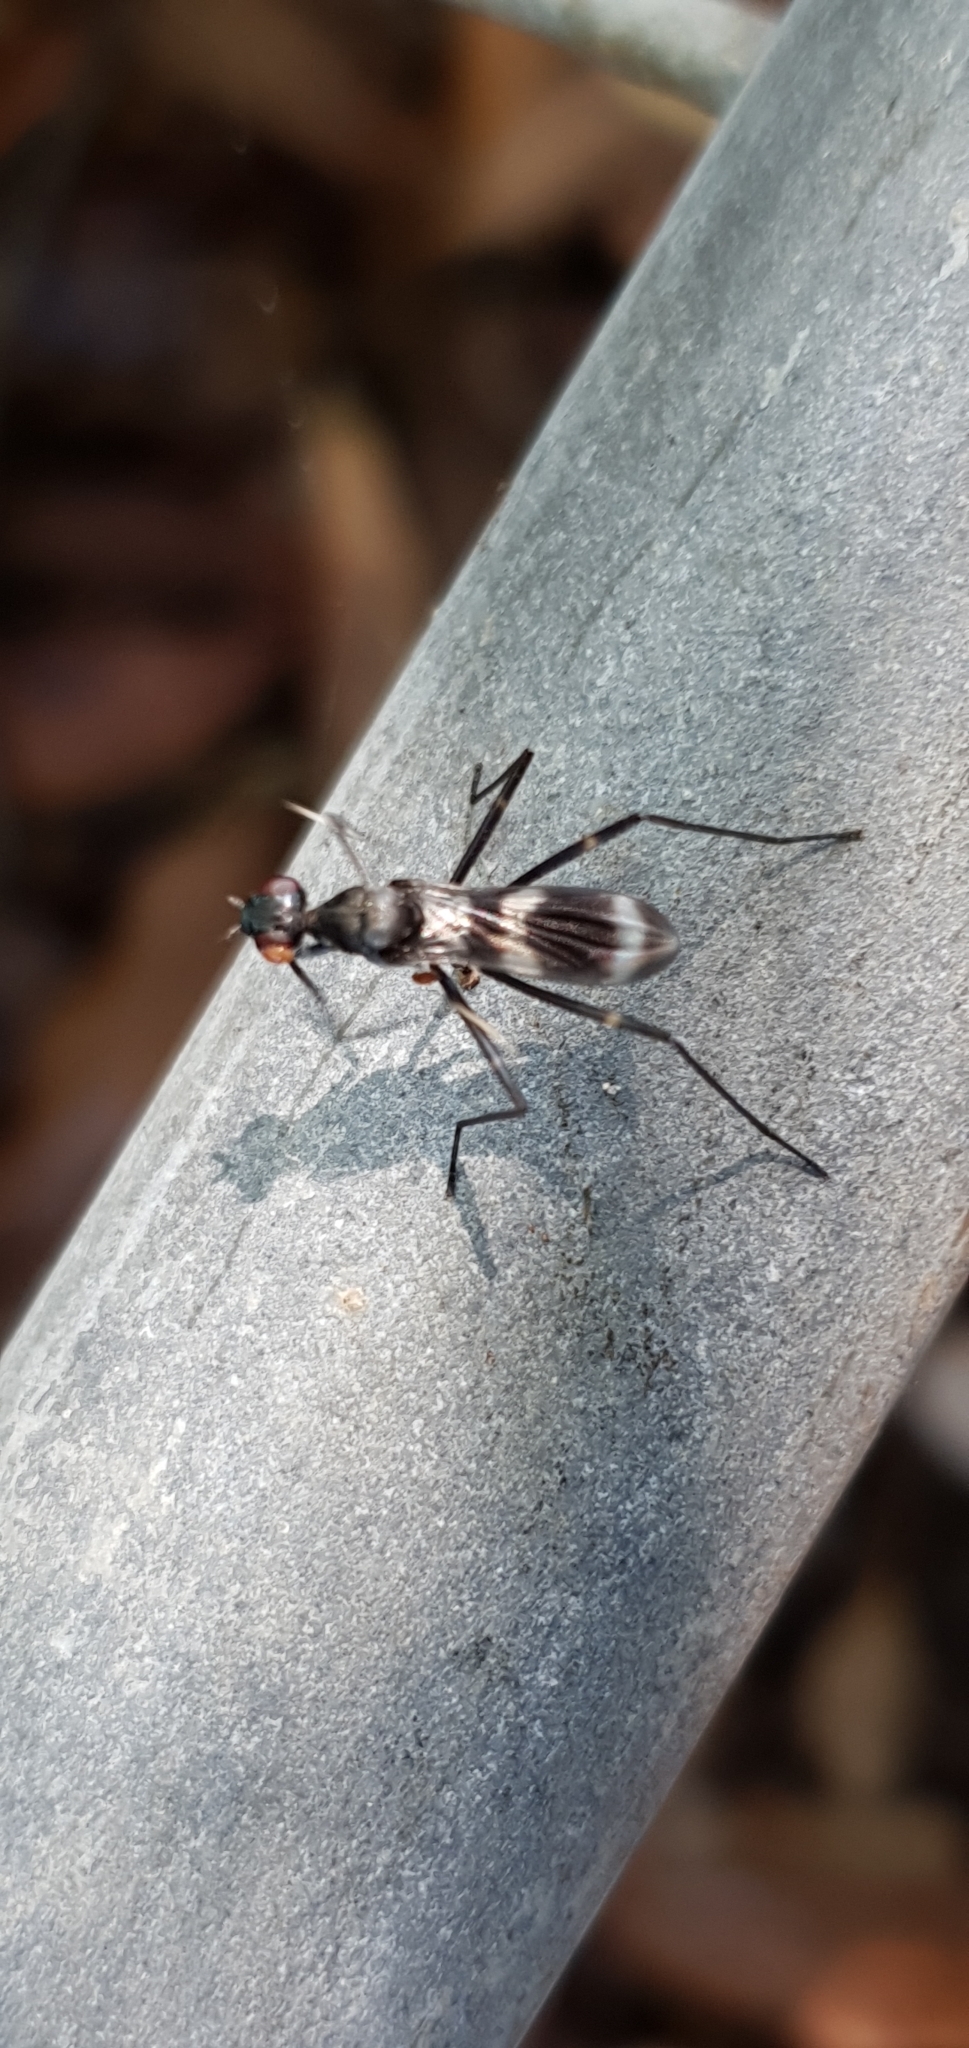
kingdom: Animalia
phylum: Arthropoda
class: Insecta
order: Diptera
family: Micropezidae
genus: Mimegralla
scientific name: Mimegralla australica
